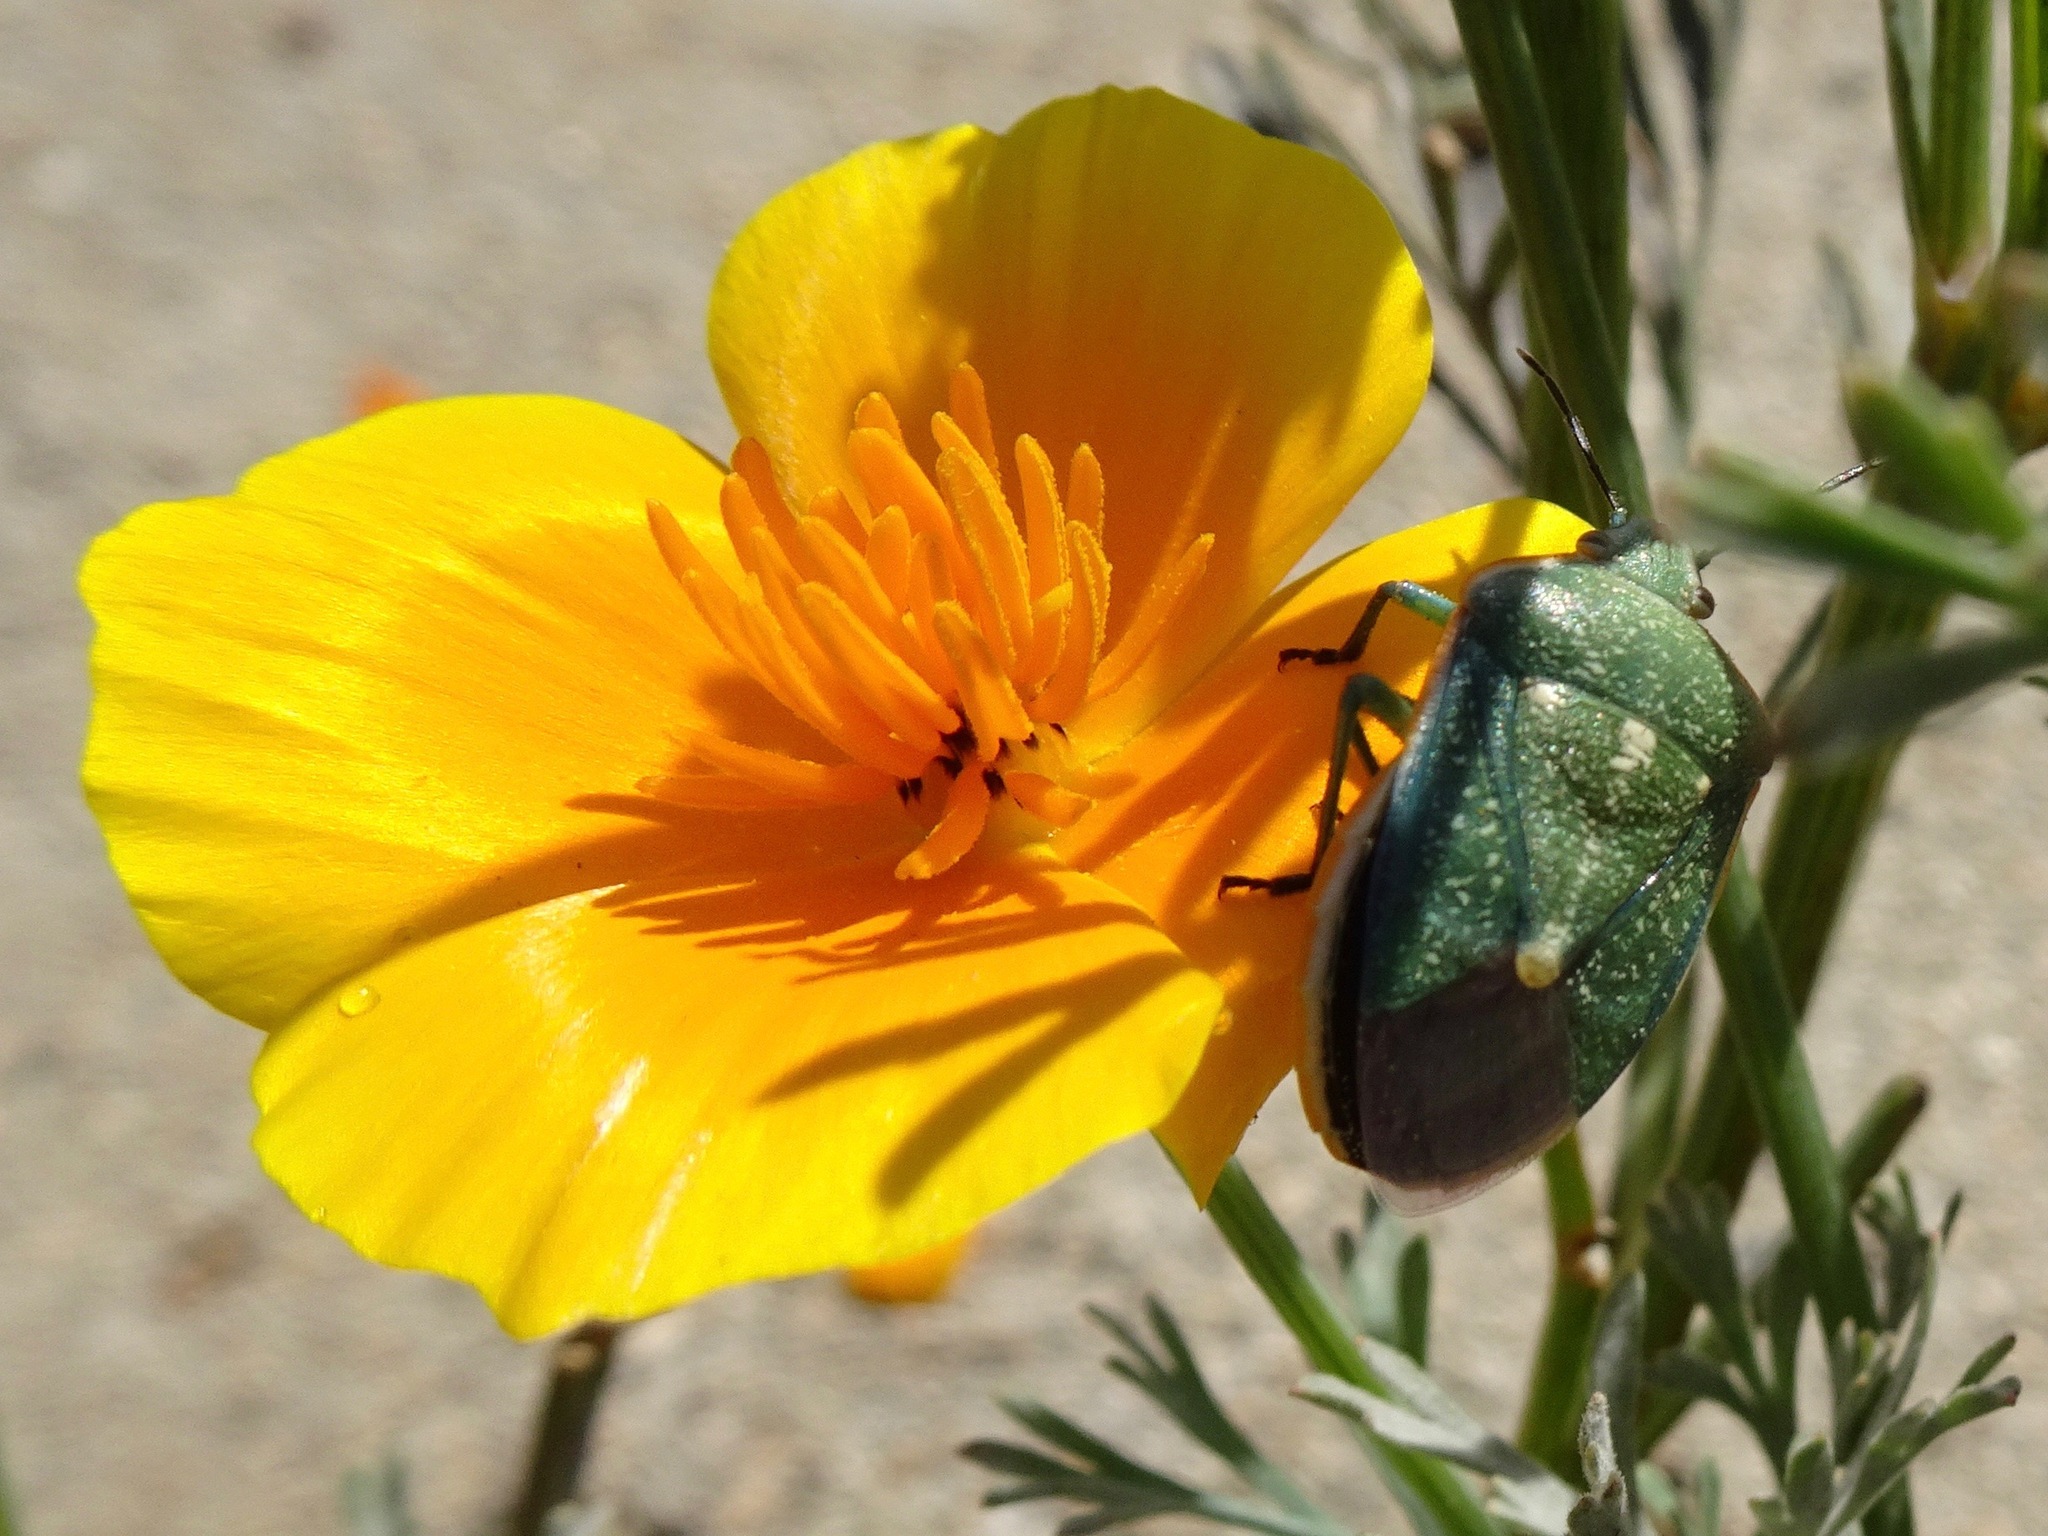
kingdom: Animalia
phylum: Arthropoda
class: Insecta
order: Hemiptera
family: Pentatomidae
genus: Chlorochroa
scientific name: Chlorochroa sayi
